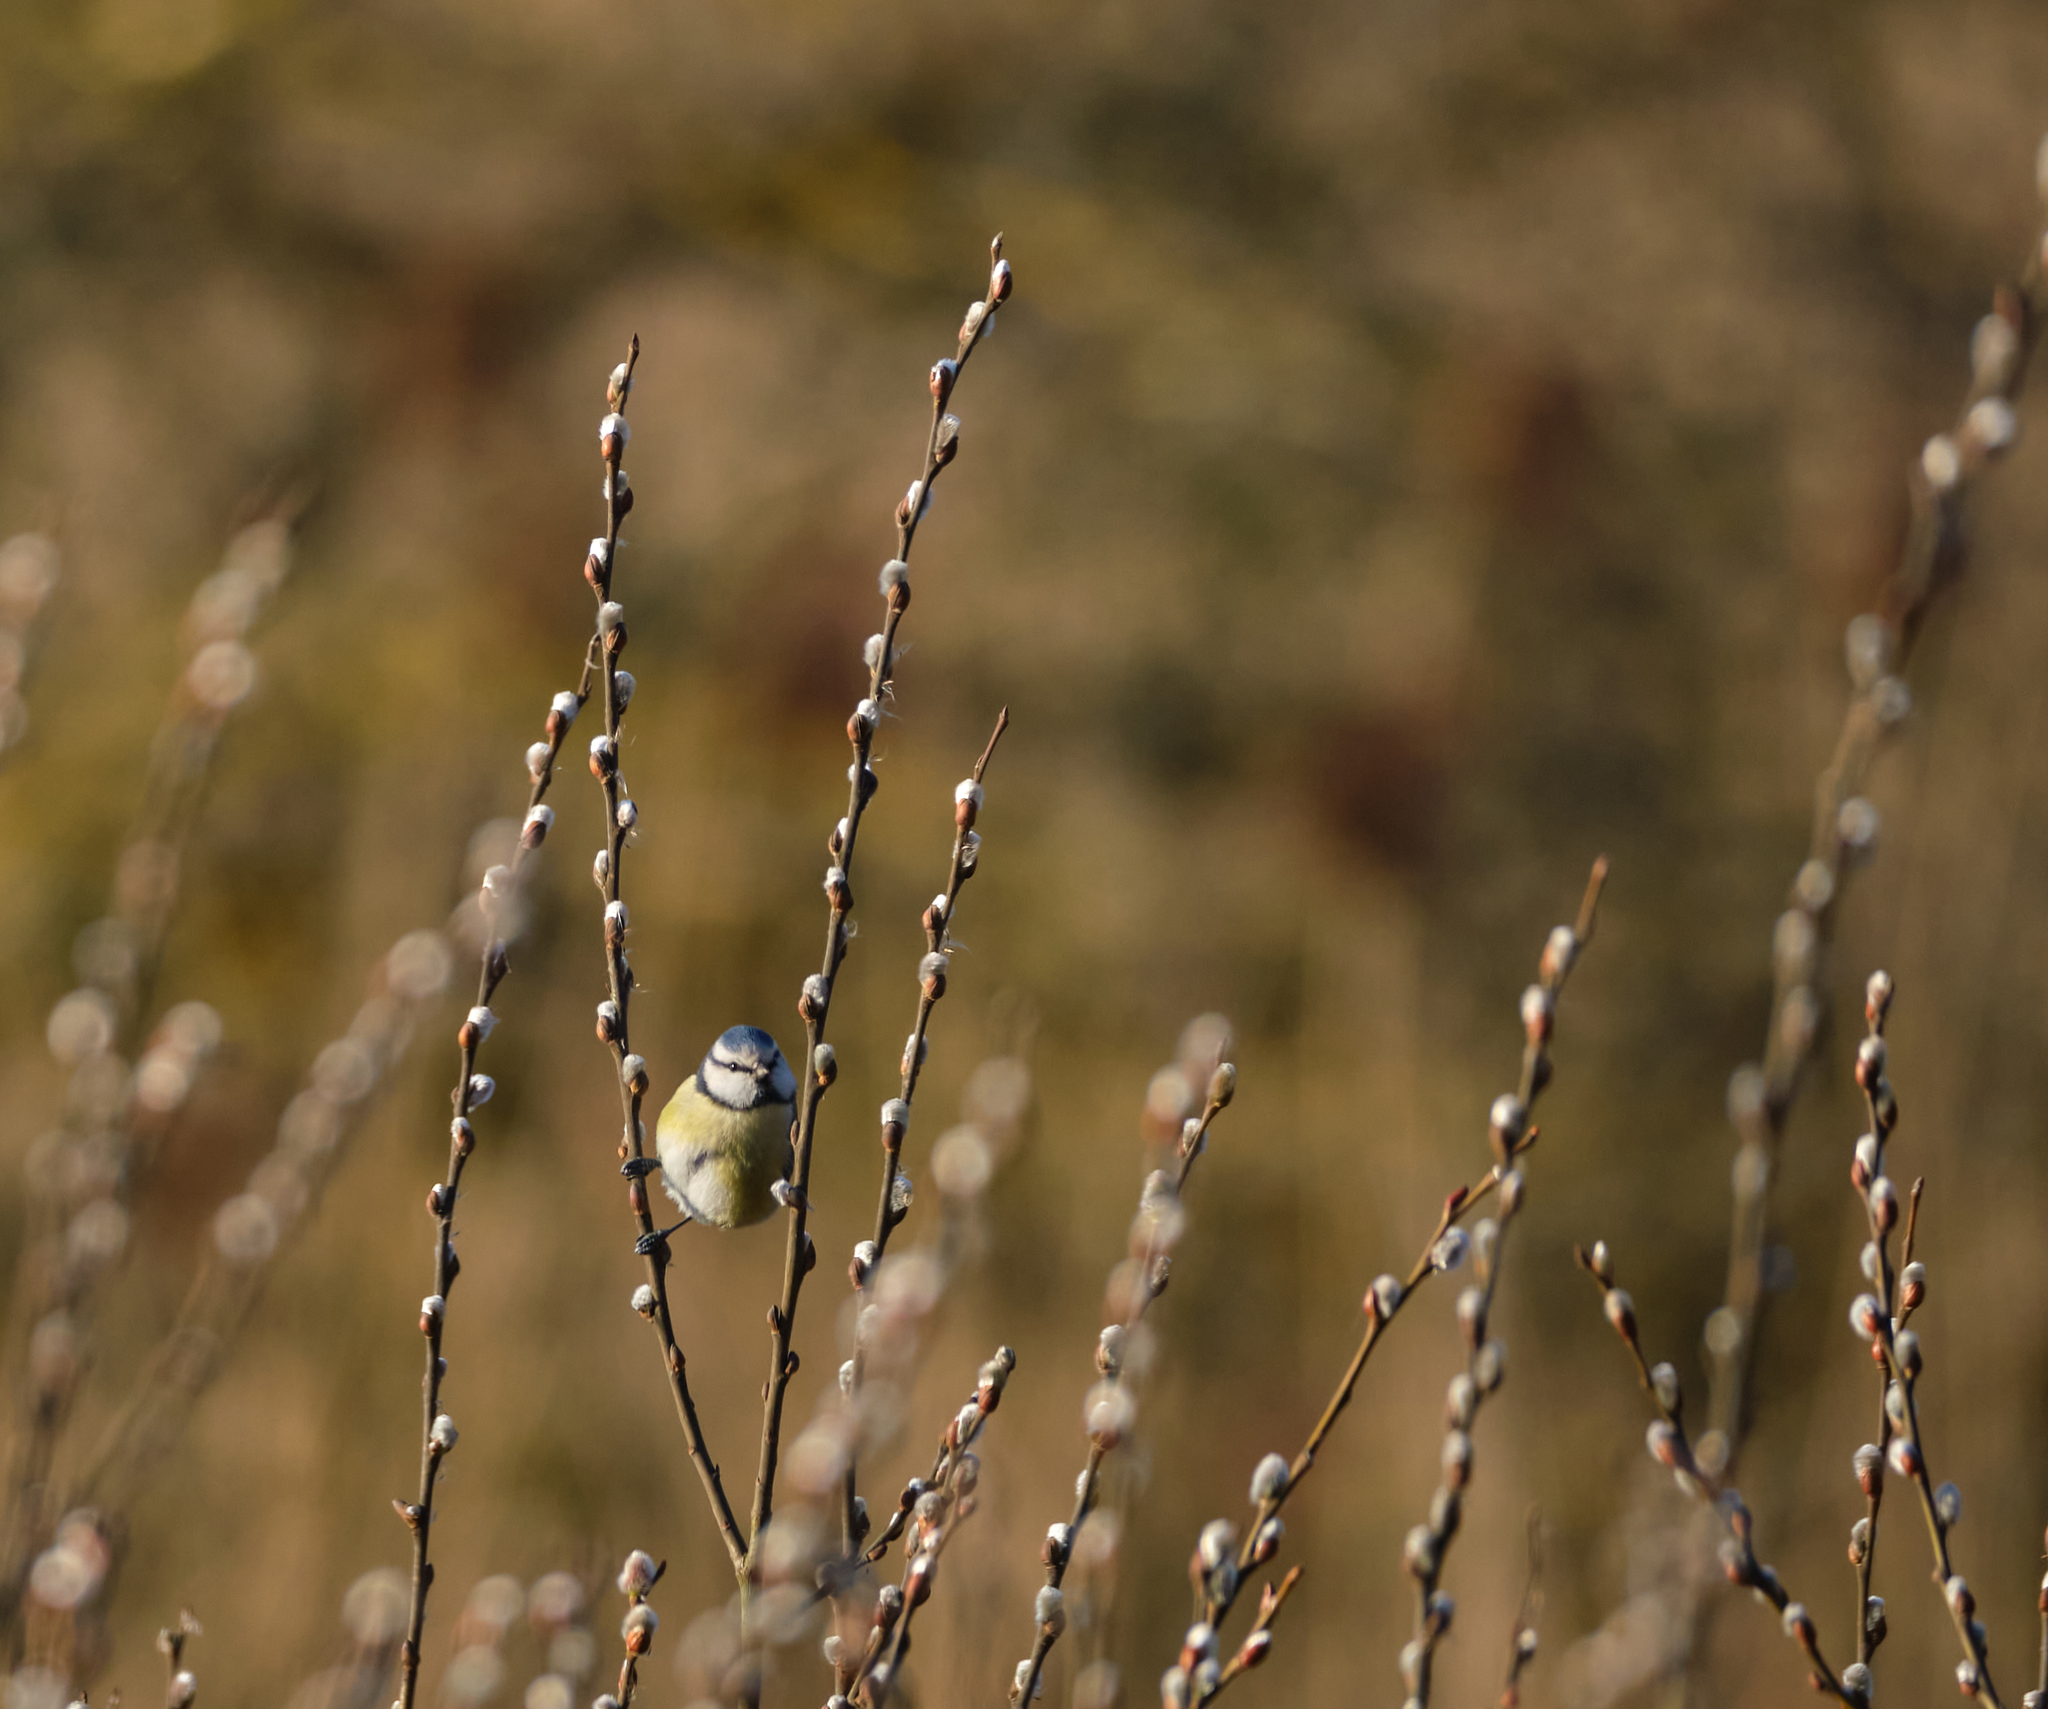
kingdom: Animalia
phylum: Chordata
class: Aves
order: Passeriformes
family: Paridae
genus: Cyanistes
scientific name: Cyanistes caeruleus
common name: Eurasian blue tit
